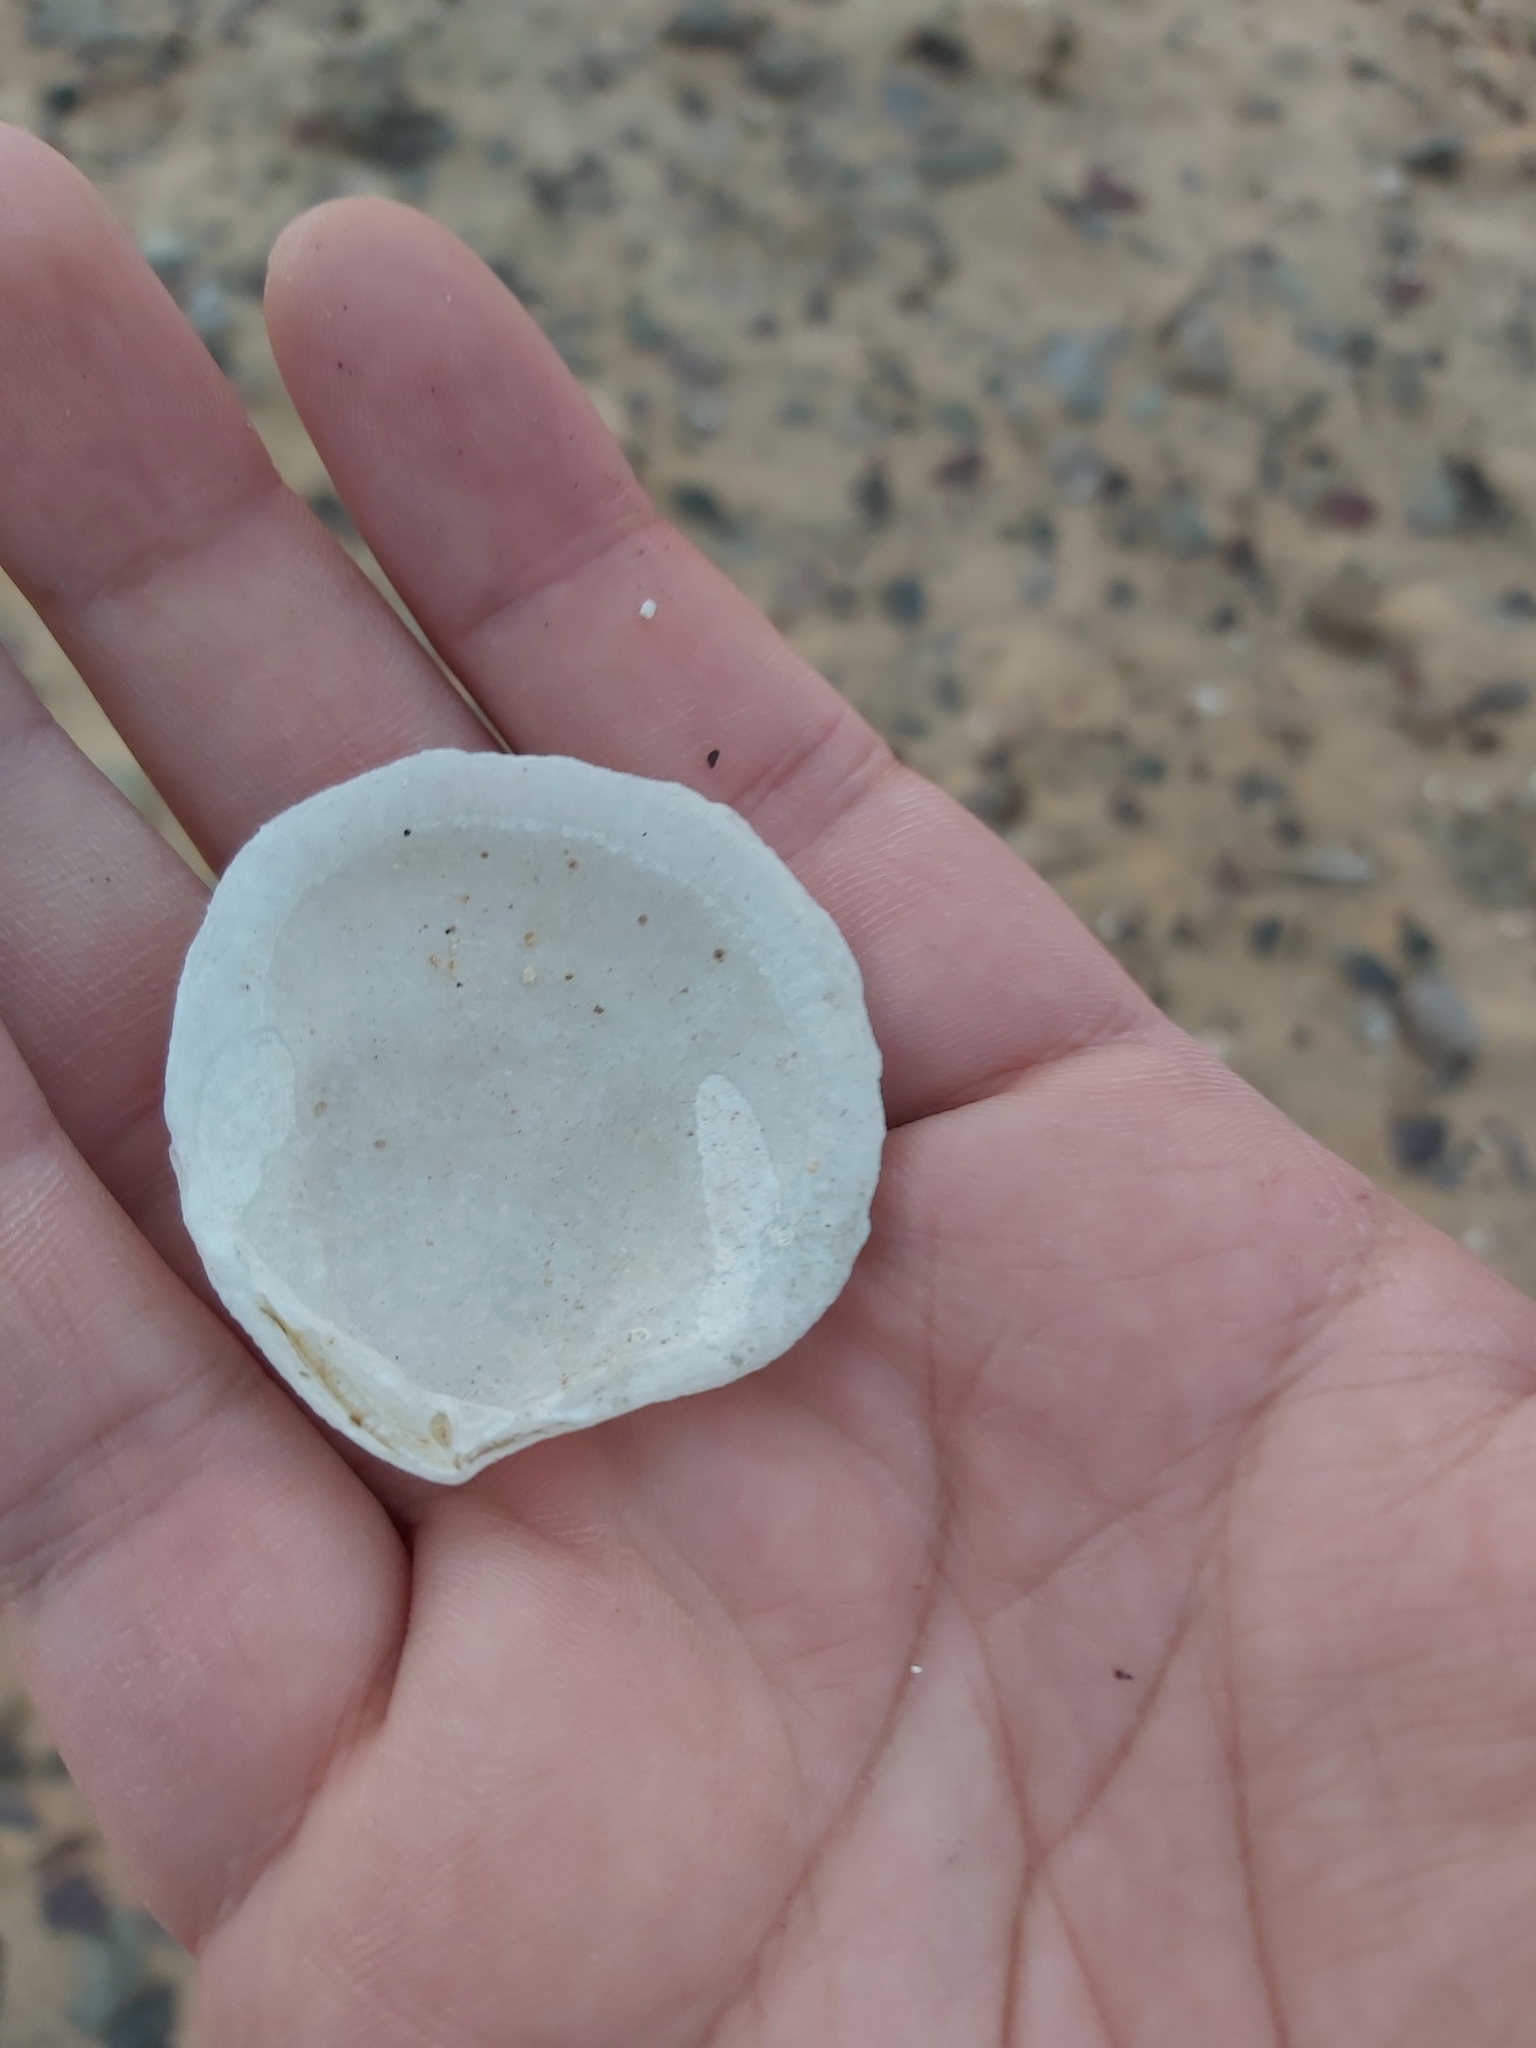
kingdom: Animalia
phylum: Mollusca
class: Bivalvia
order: Lucinida
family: Lucinidae
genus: Codakia
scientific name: Codakia rugifera
